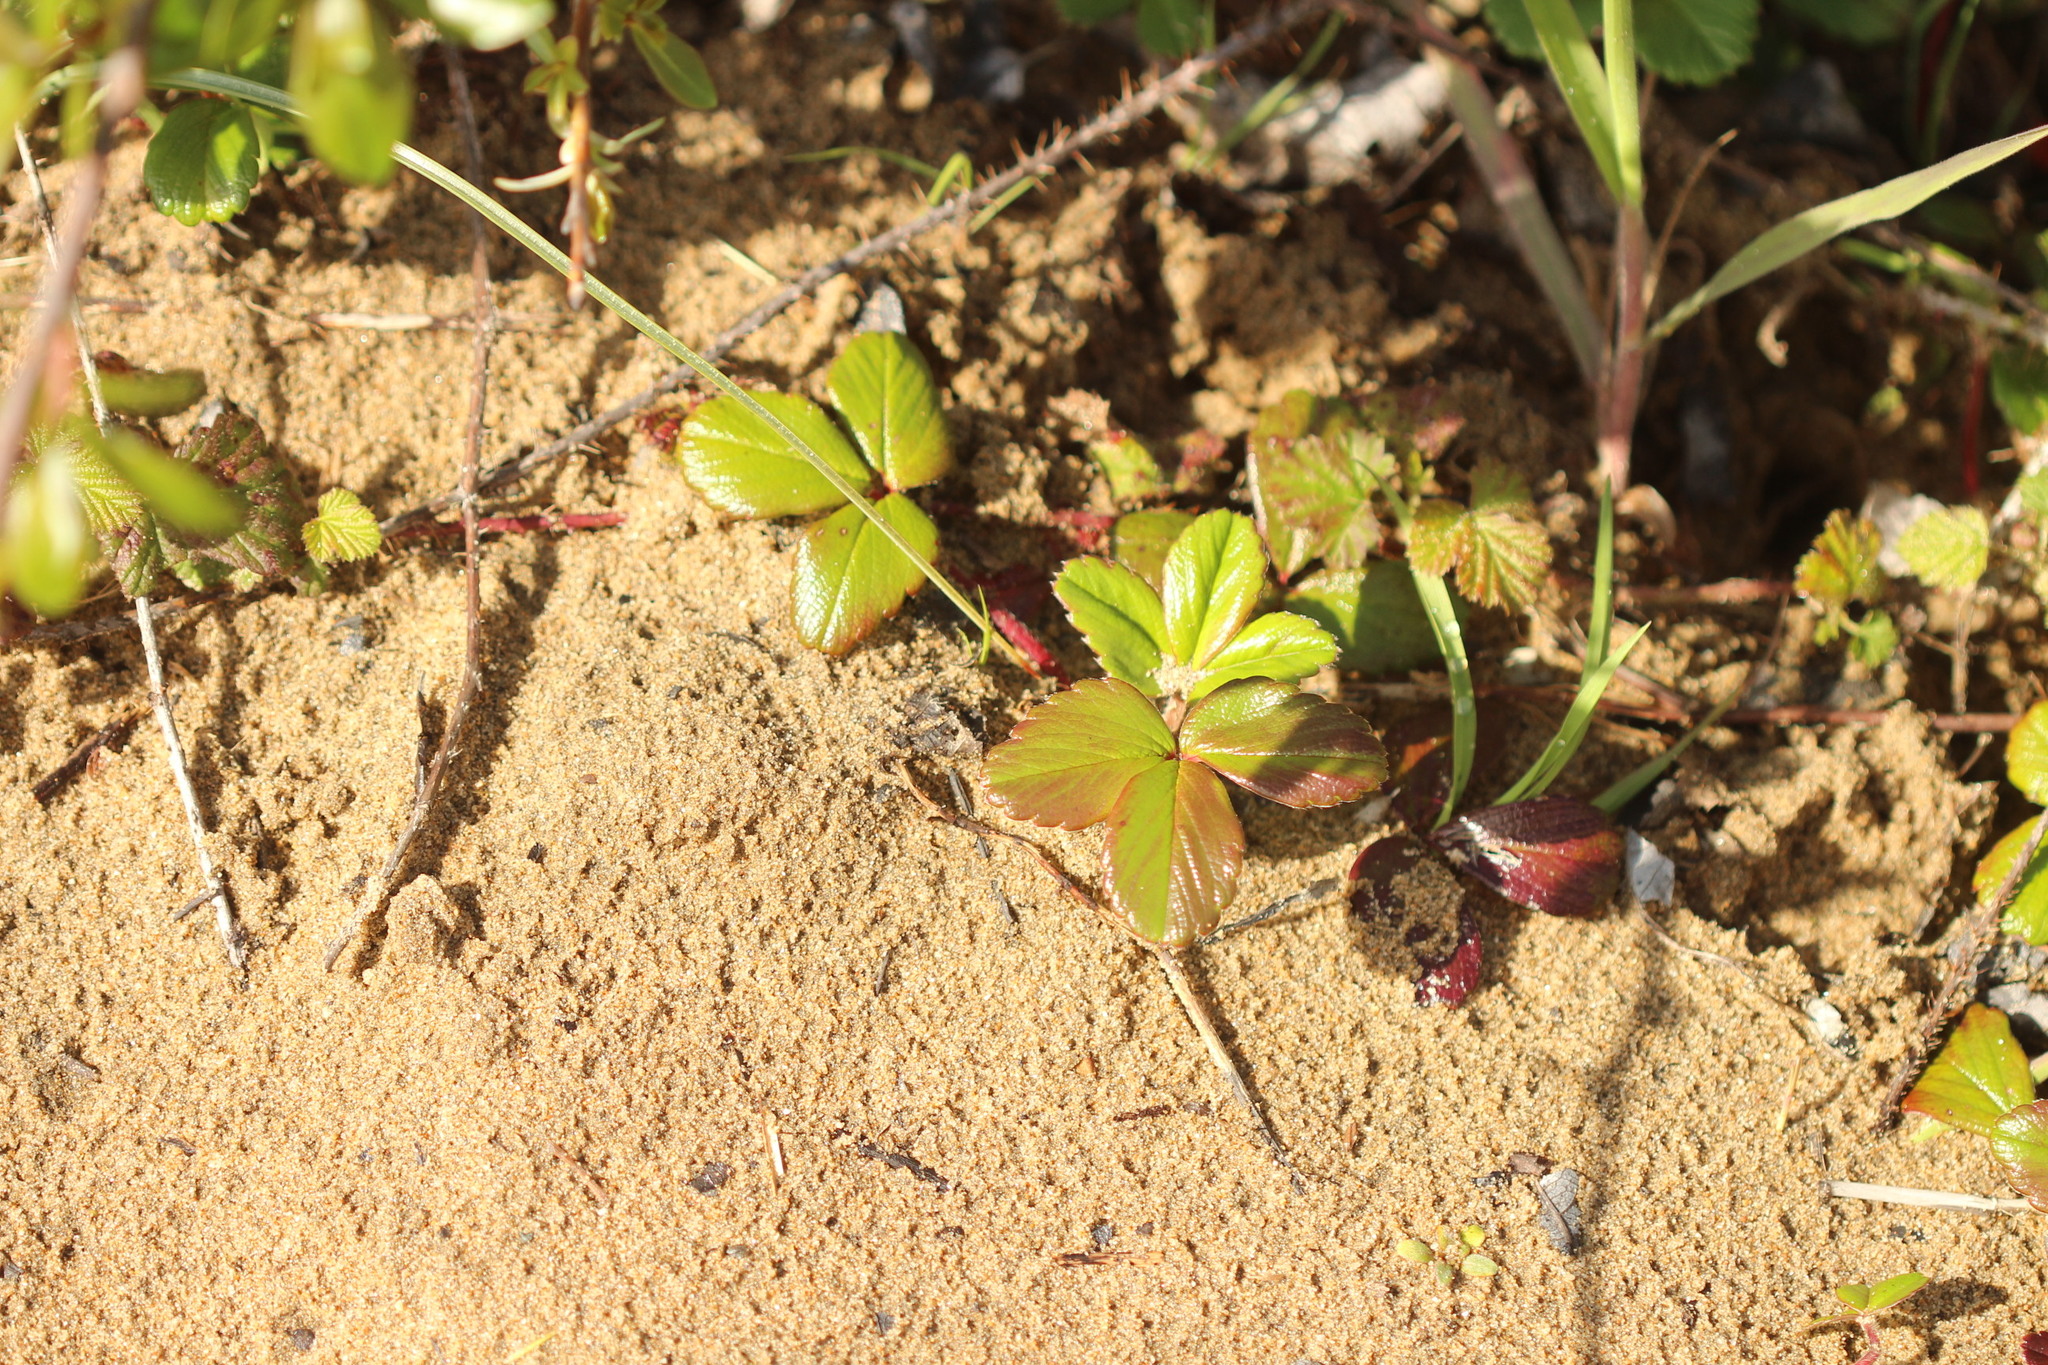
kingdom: Plantae
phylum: Tracheophyta
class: Magnoliopsida
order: Rosales
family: Rosaceae
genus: Fragaria
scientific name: Fragaria chiloensis
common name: Beach strawberry
